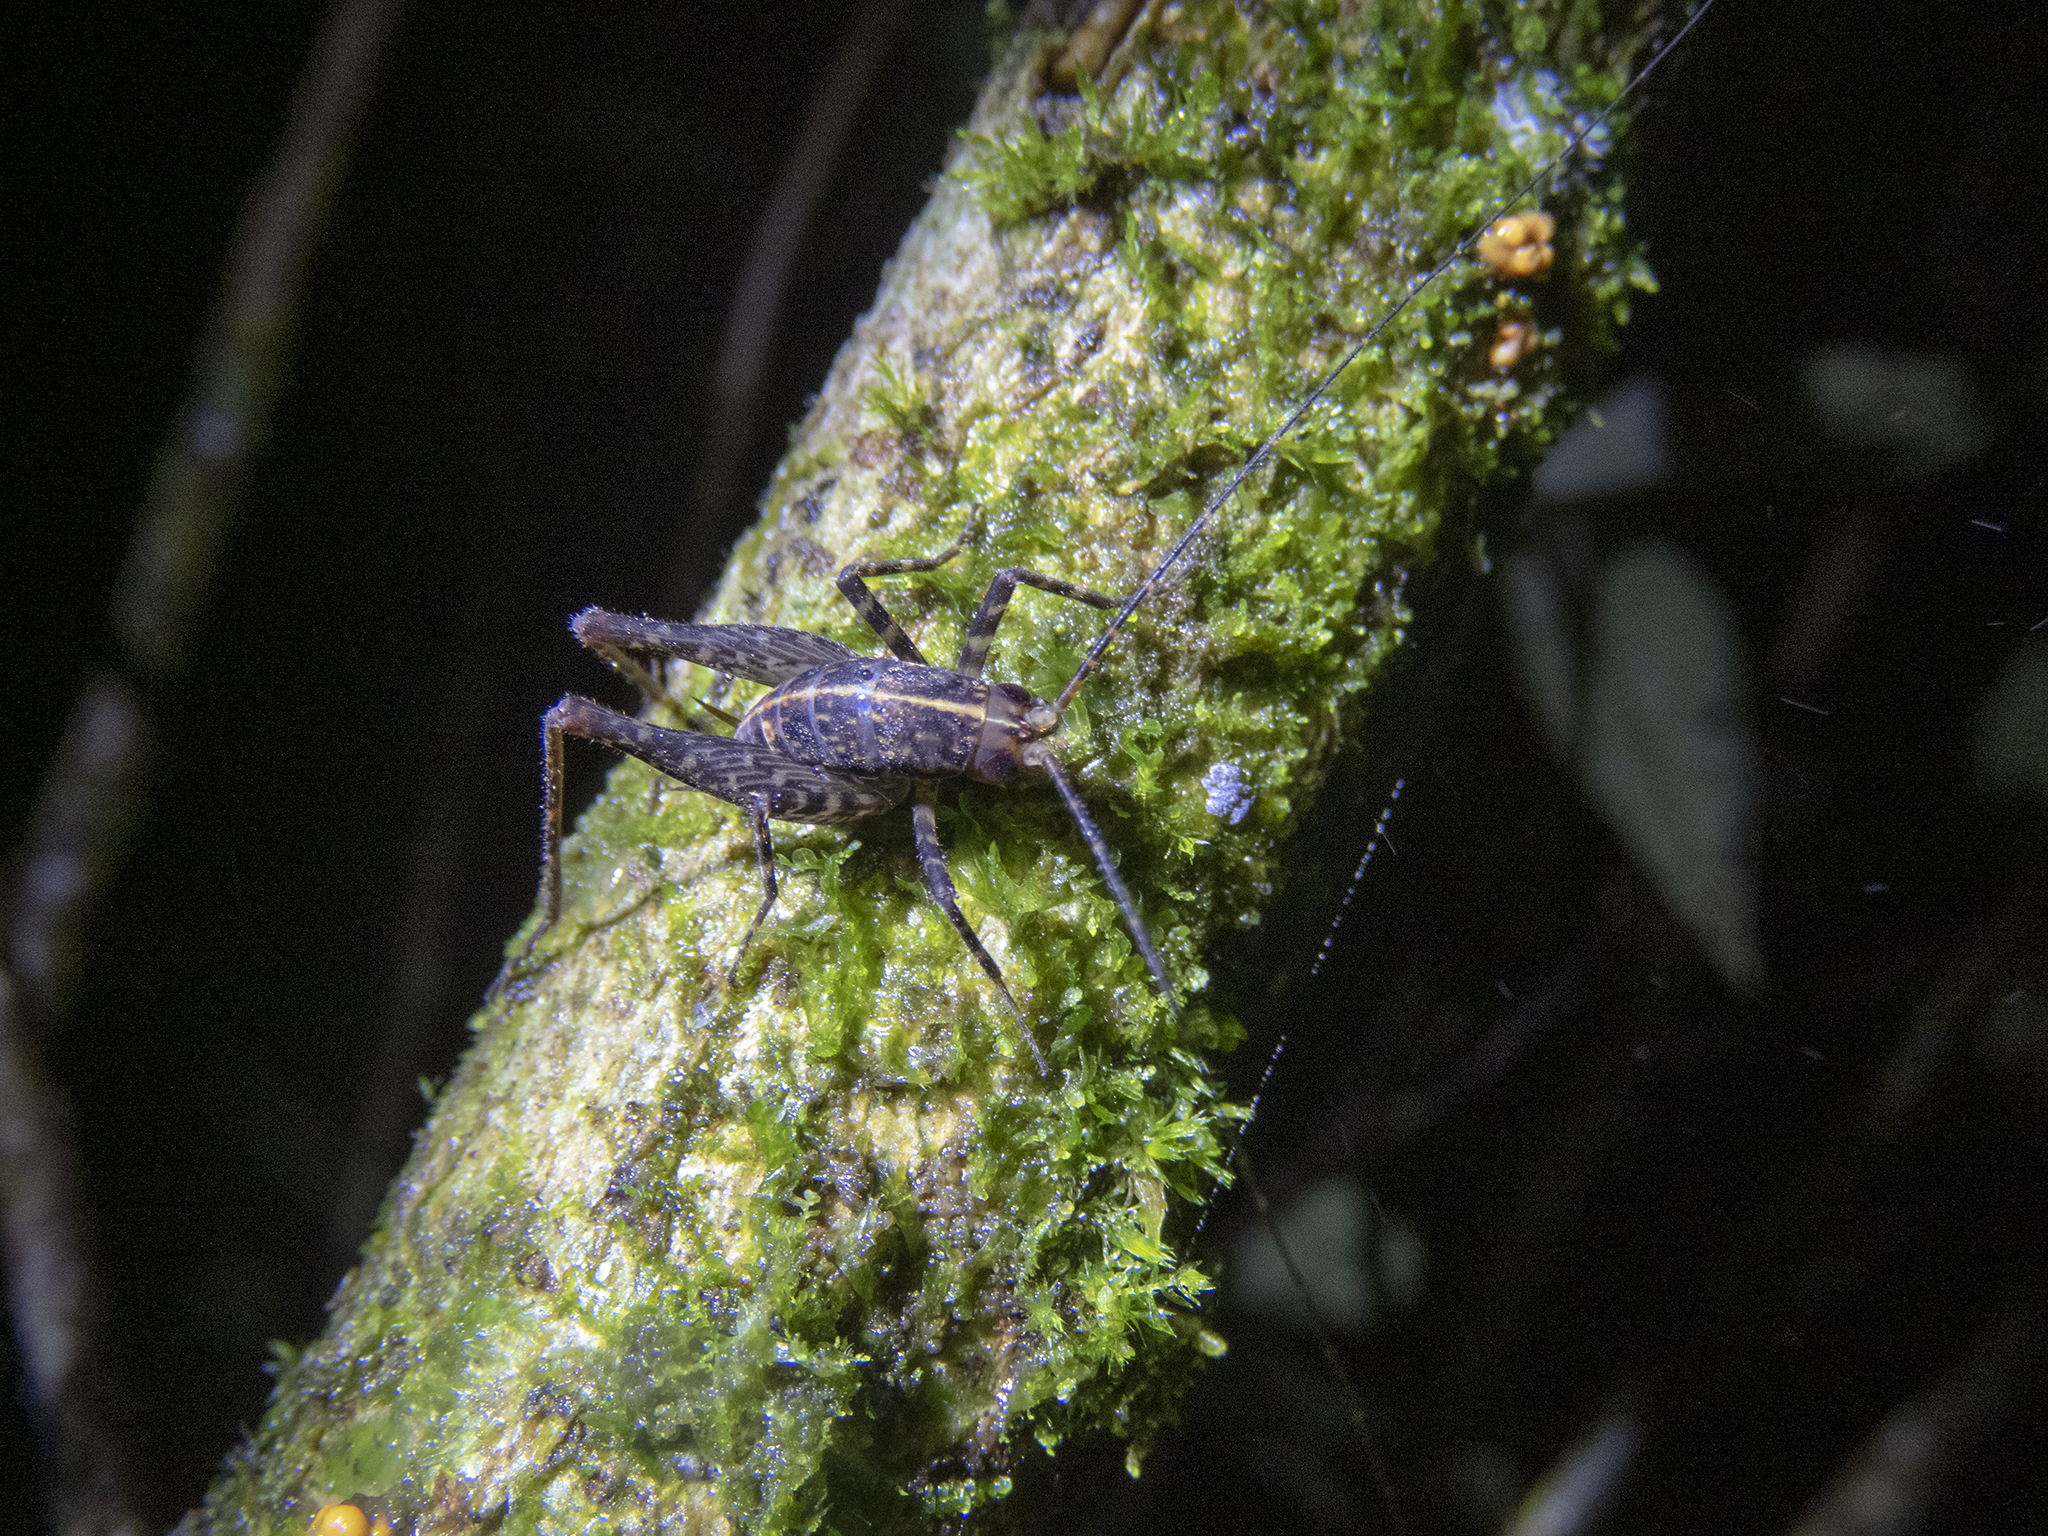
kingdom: Animalia
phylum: Arthropoda
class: Insecta
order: Orthoptera
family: Rhaphidophoridae
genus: Pleioplectron
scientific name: Pleioplectron gubernator
